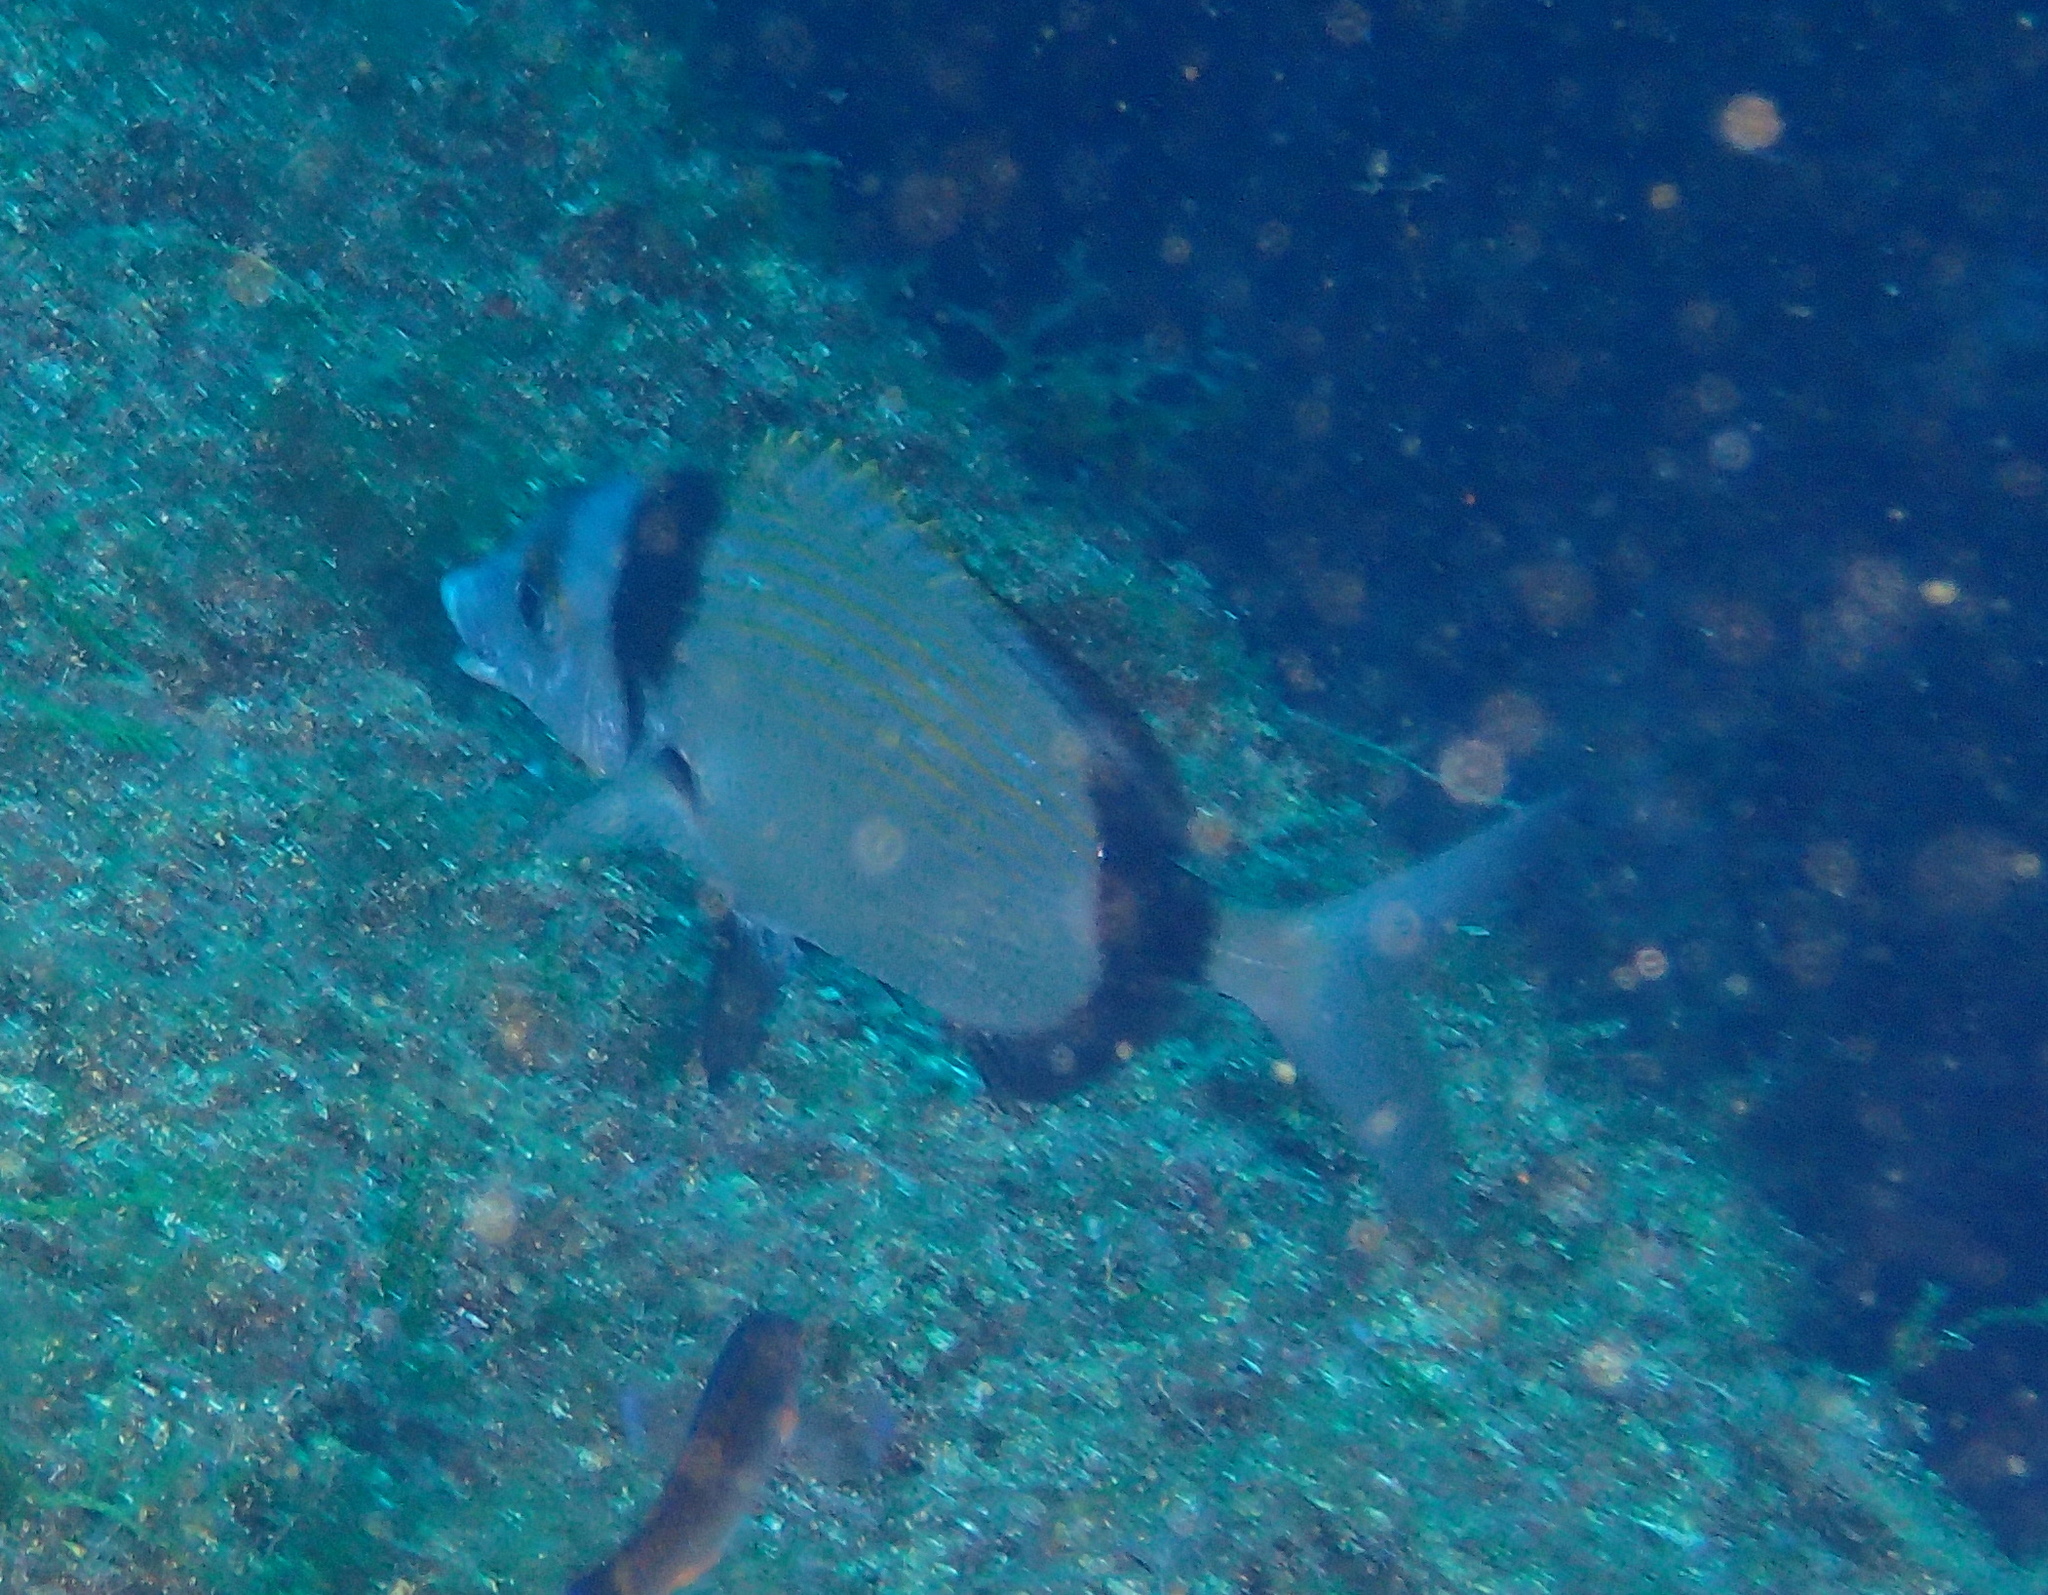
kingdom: Animalia
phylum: Chordata
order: Perciformes
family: Sparidae
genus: Diplodus
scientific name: Diplodus vulgaris
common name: Common two-banded seabream
